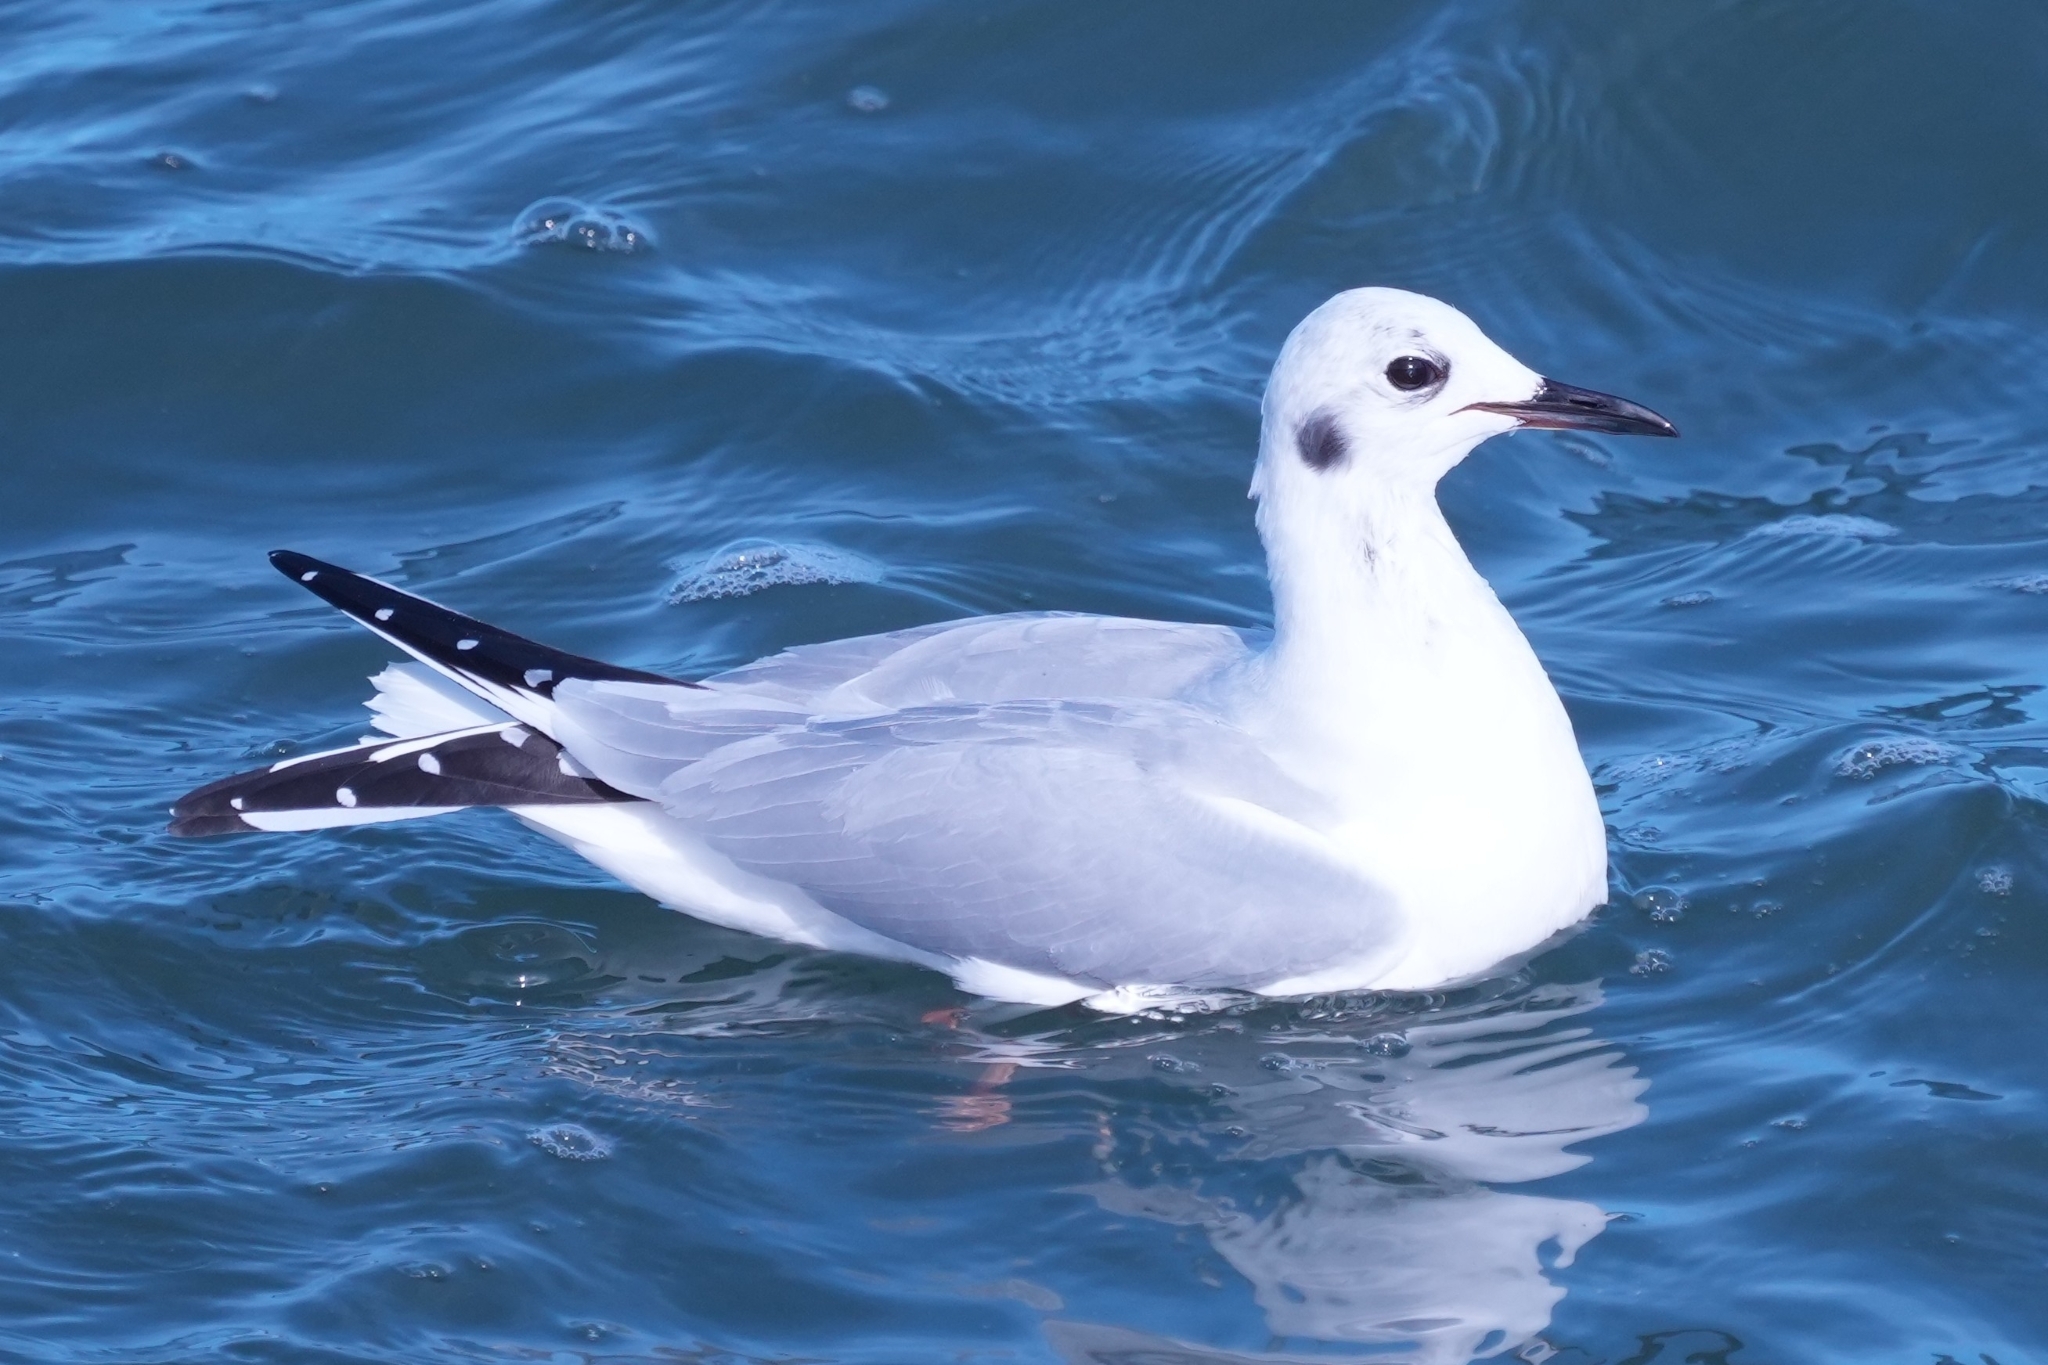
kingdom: Animalia
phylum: Chordata
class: Aves
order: Charadriiformes
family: Laridae
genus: Chroicocephalus
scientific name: Chroicocephalus philadelphia
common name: Bonaparte's gull
